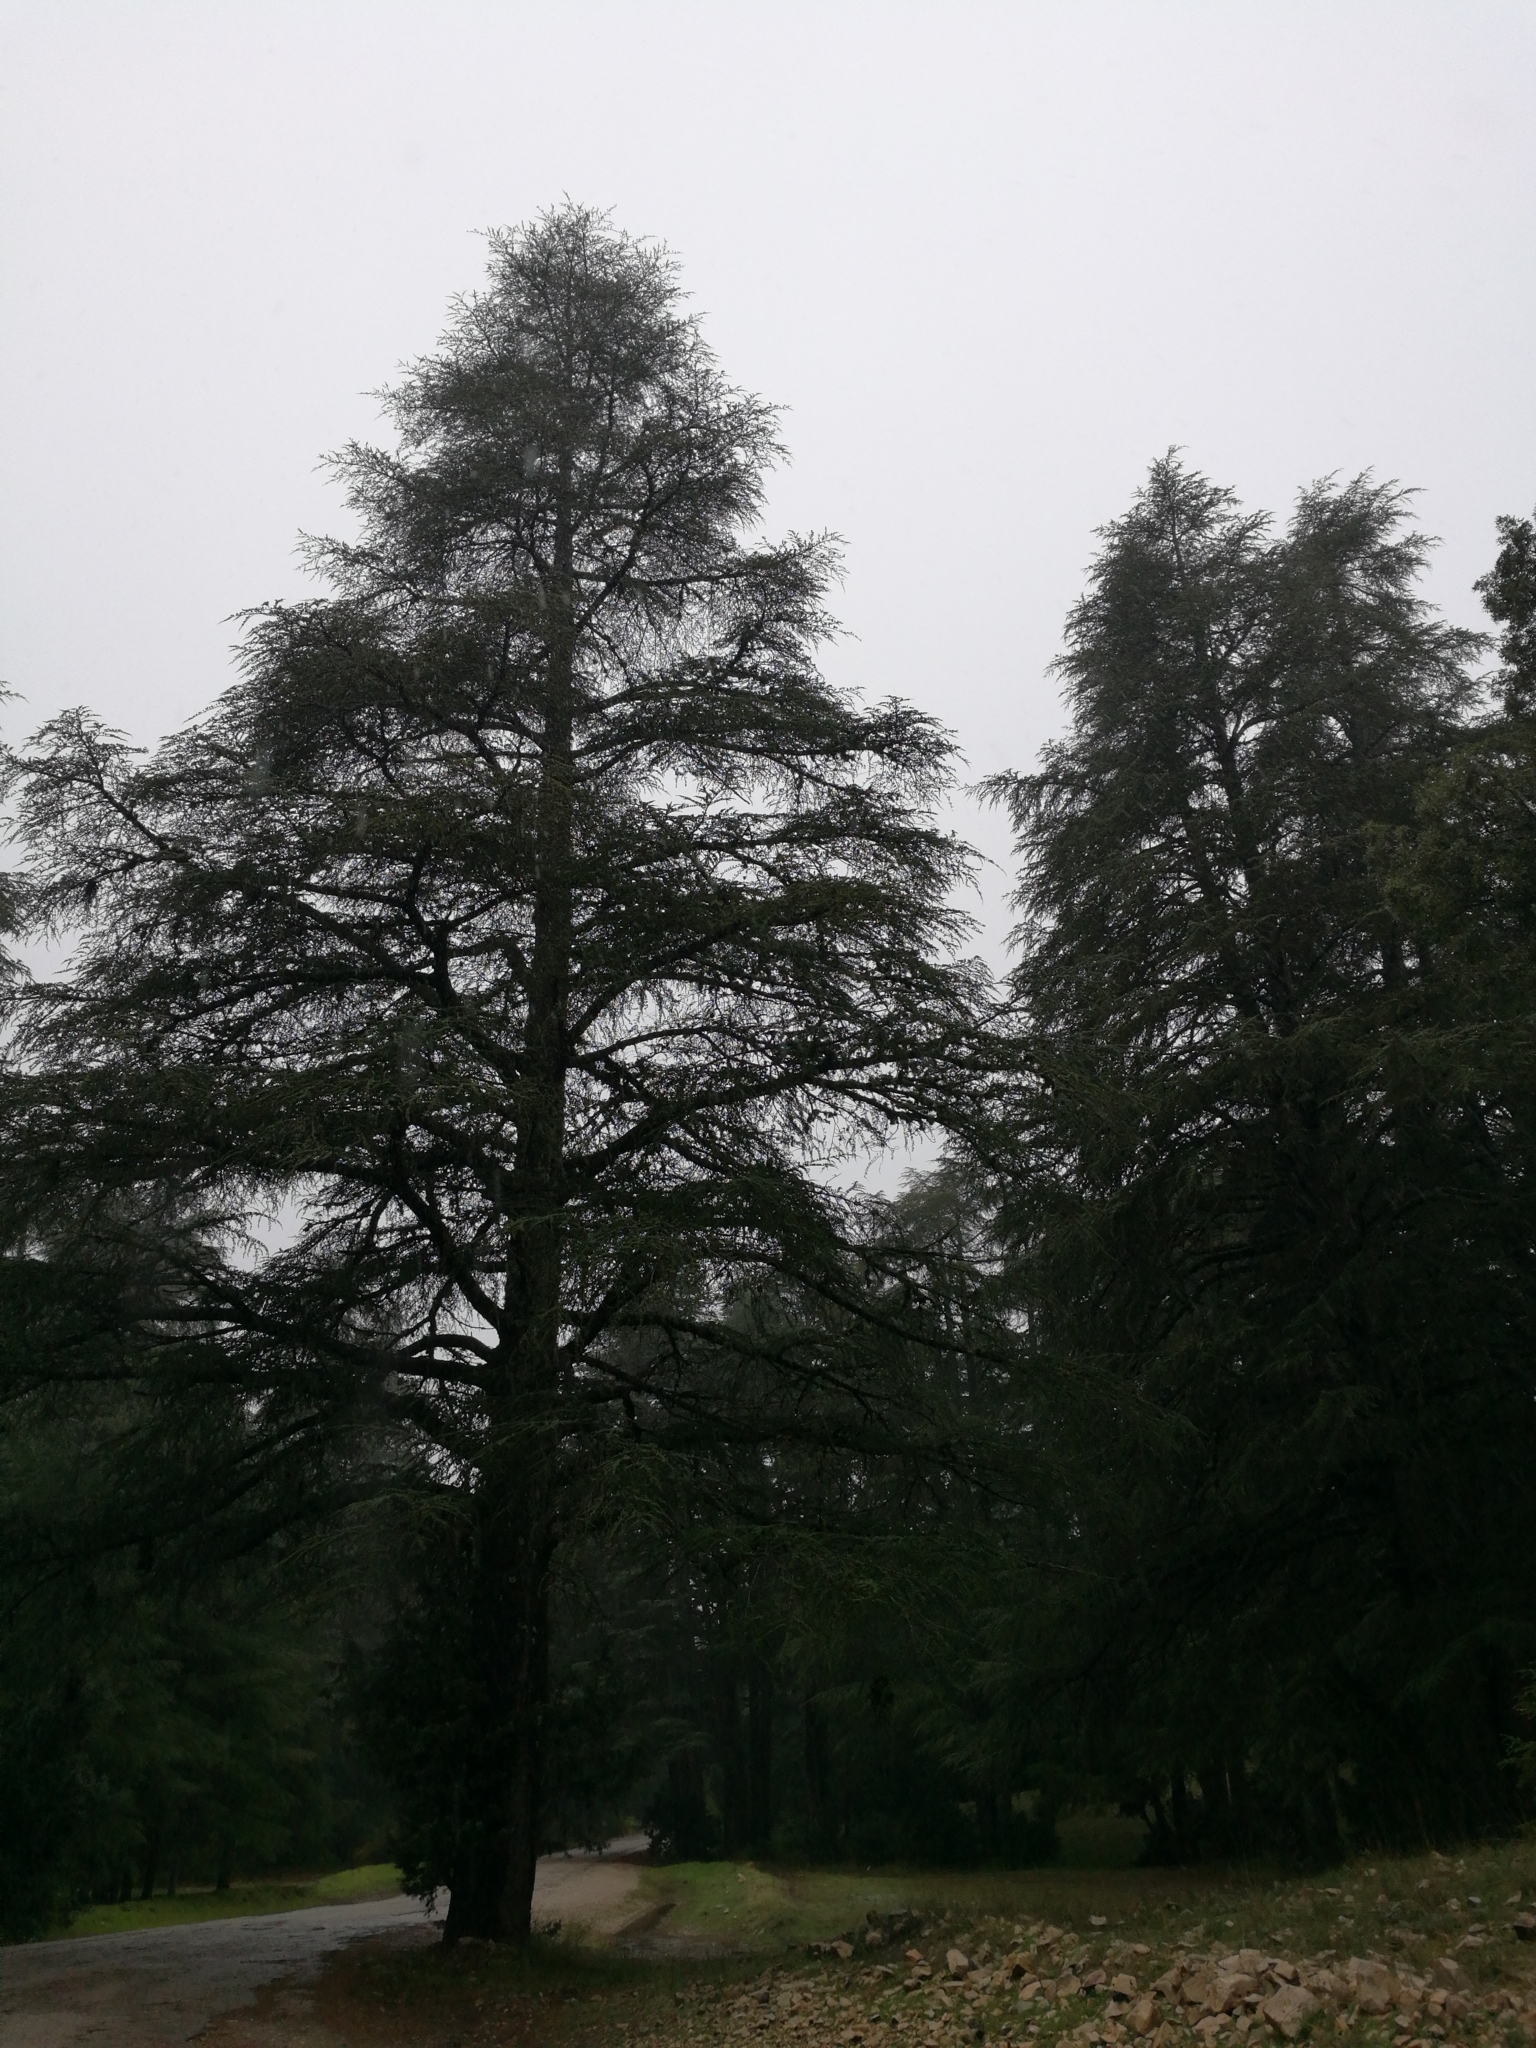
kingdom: Plantae
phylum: Tracheophyta
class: Pinopsida
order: Pinales
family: Pinaceae
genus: Cedrus
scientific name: Cedrus atlantica
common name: Atlas cedar
